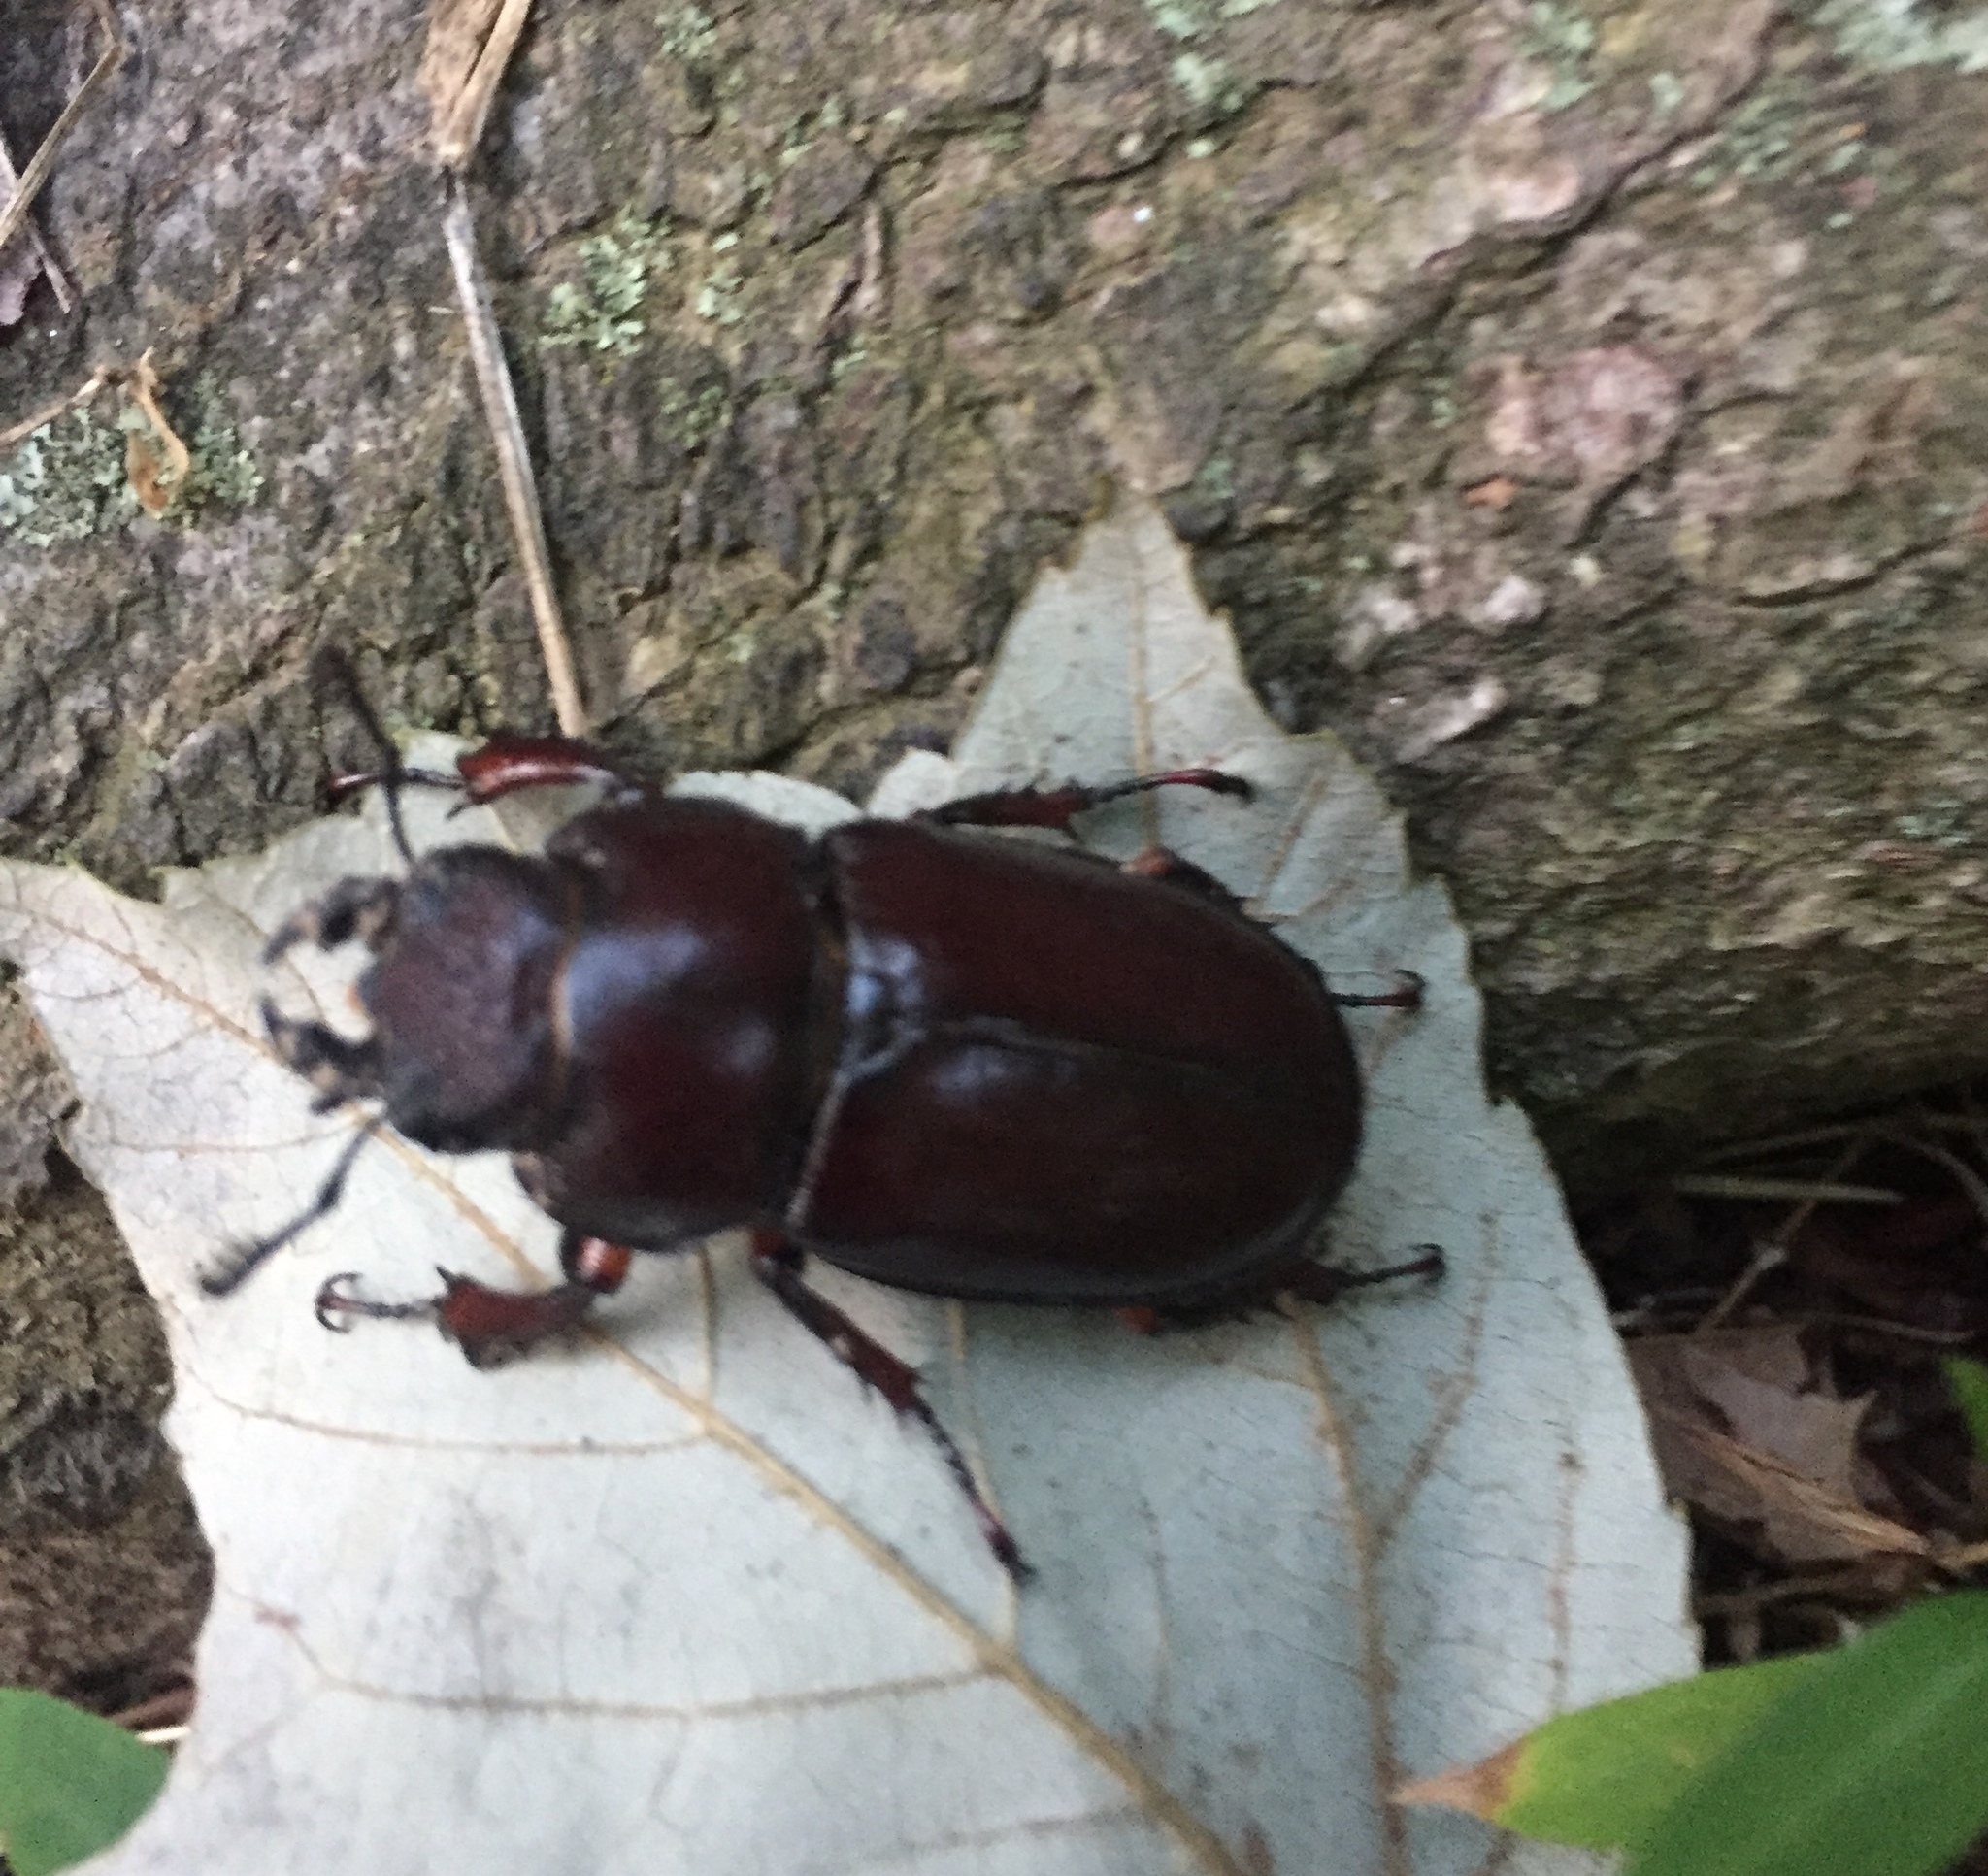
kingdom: Animalia
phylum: Arthropoda
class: Insecta
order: Coleoptera
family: Lucanidae
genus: Lucanus
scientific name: Lucanus capreolus
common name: Stag beetle
